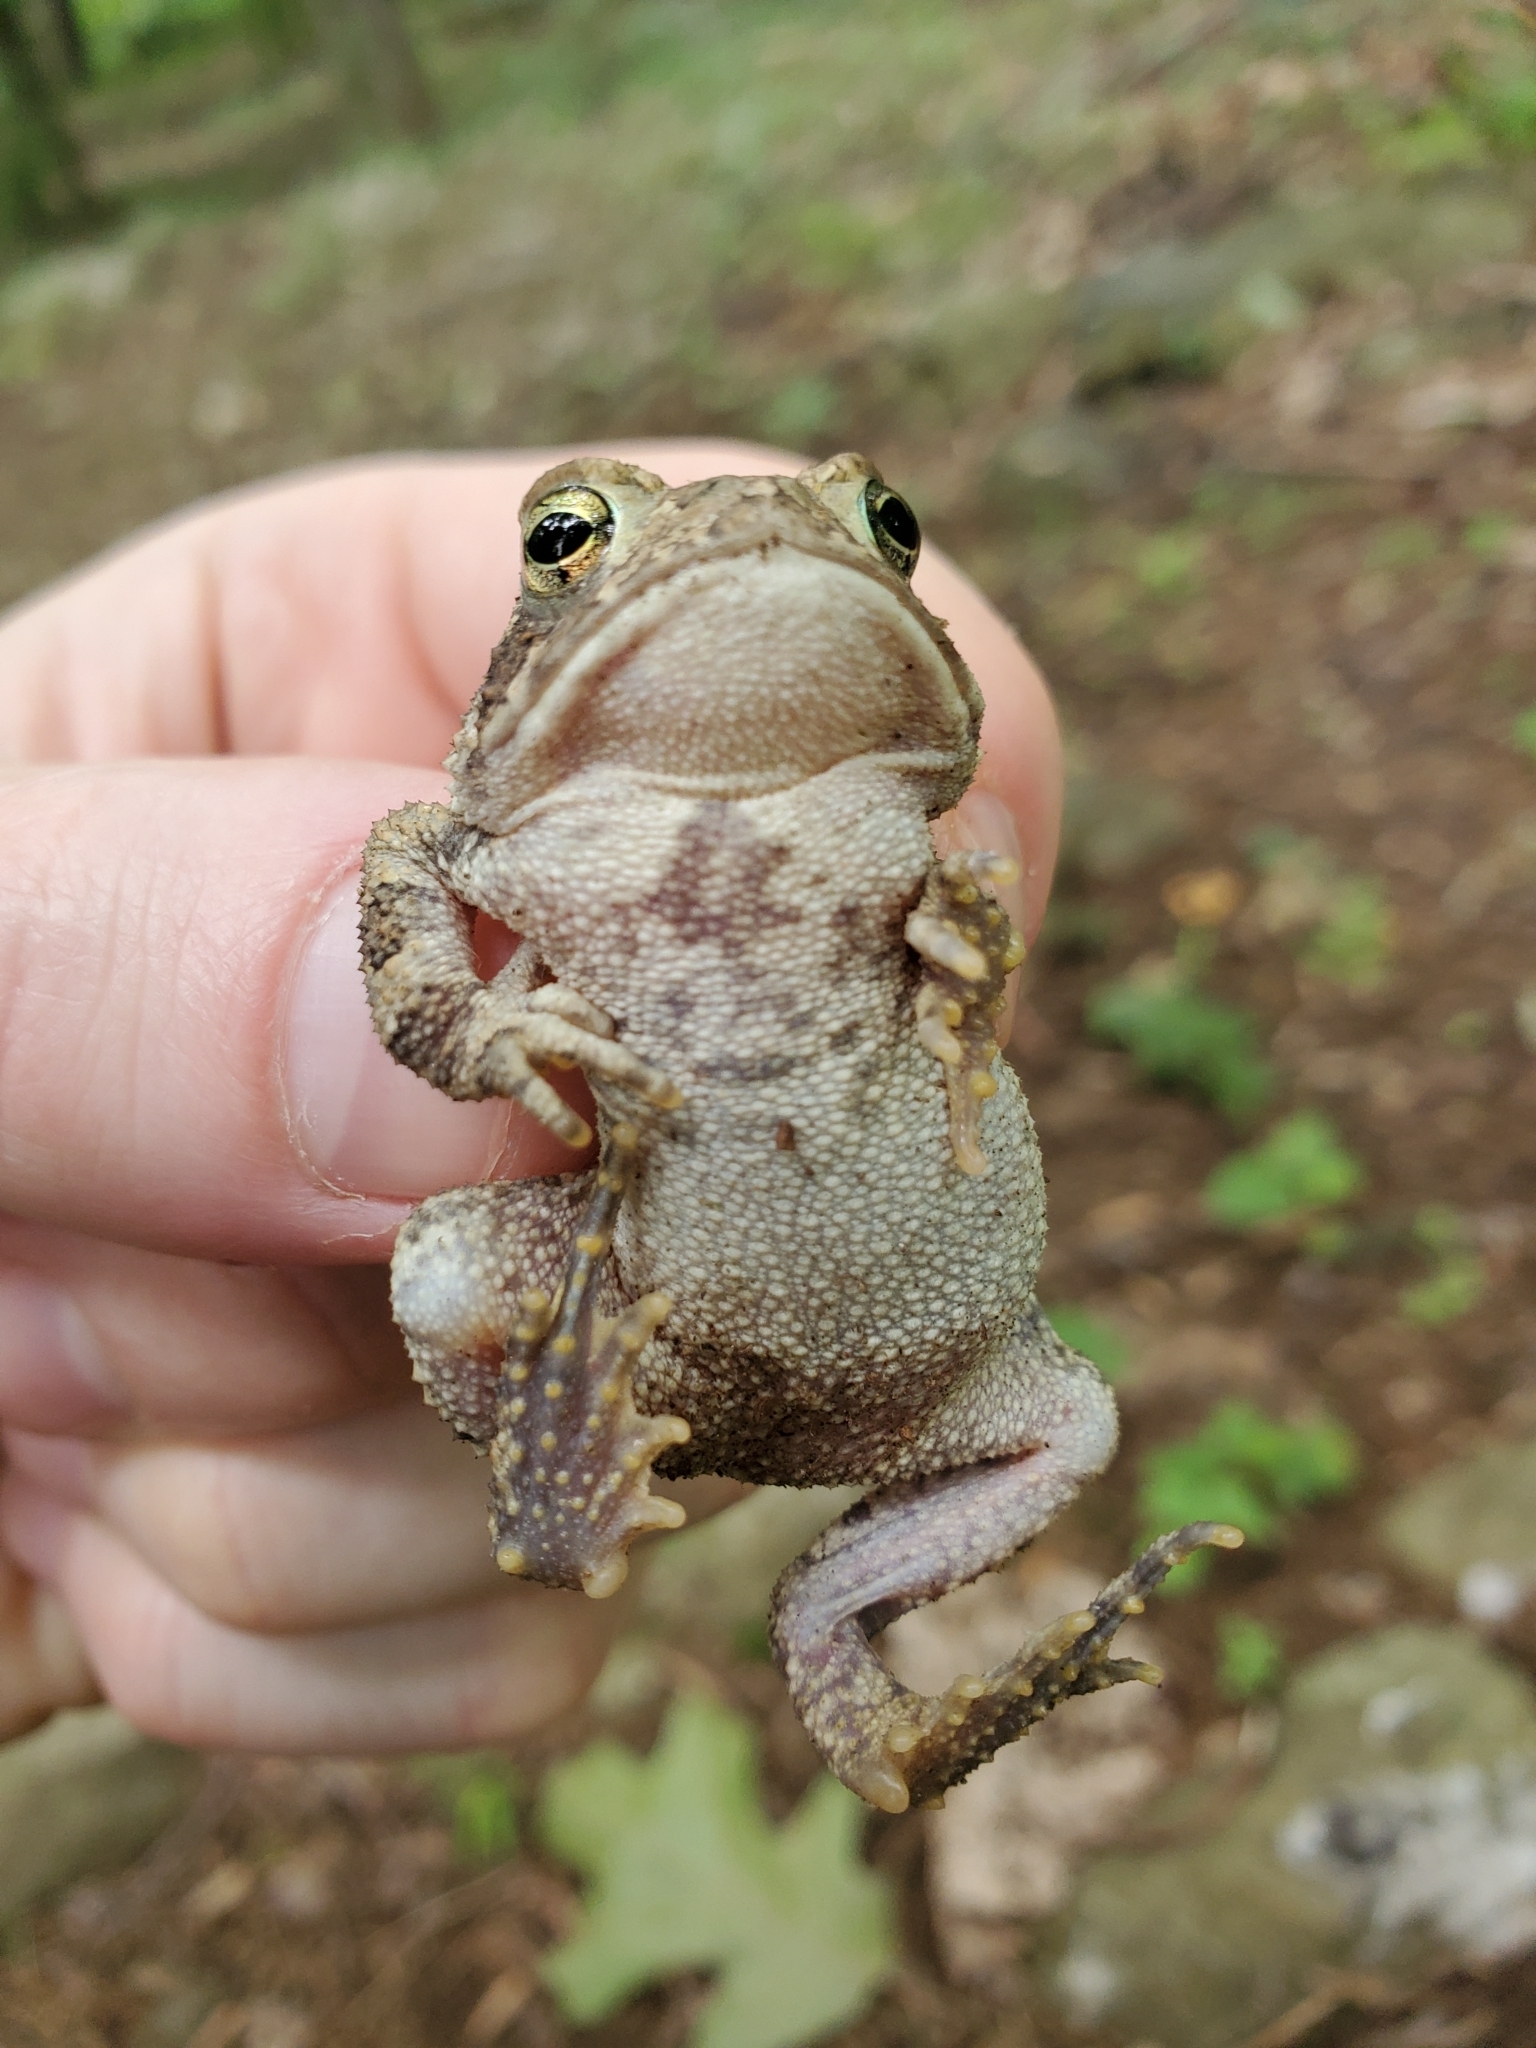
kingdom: Animalia
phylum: Chordata
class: Amphibia
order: Anura
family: Bufonidae
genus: Anaxyrus
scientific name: Anaxyrus americanus
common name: American toad
